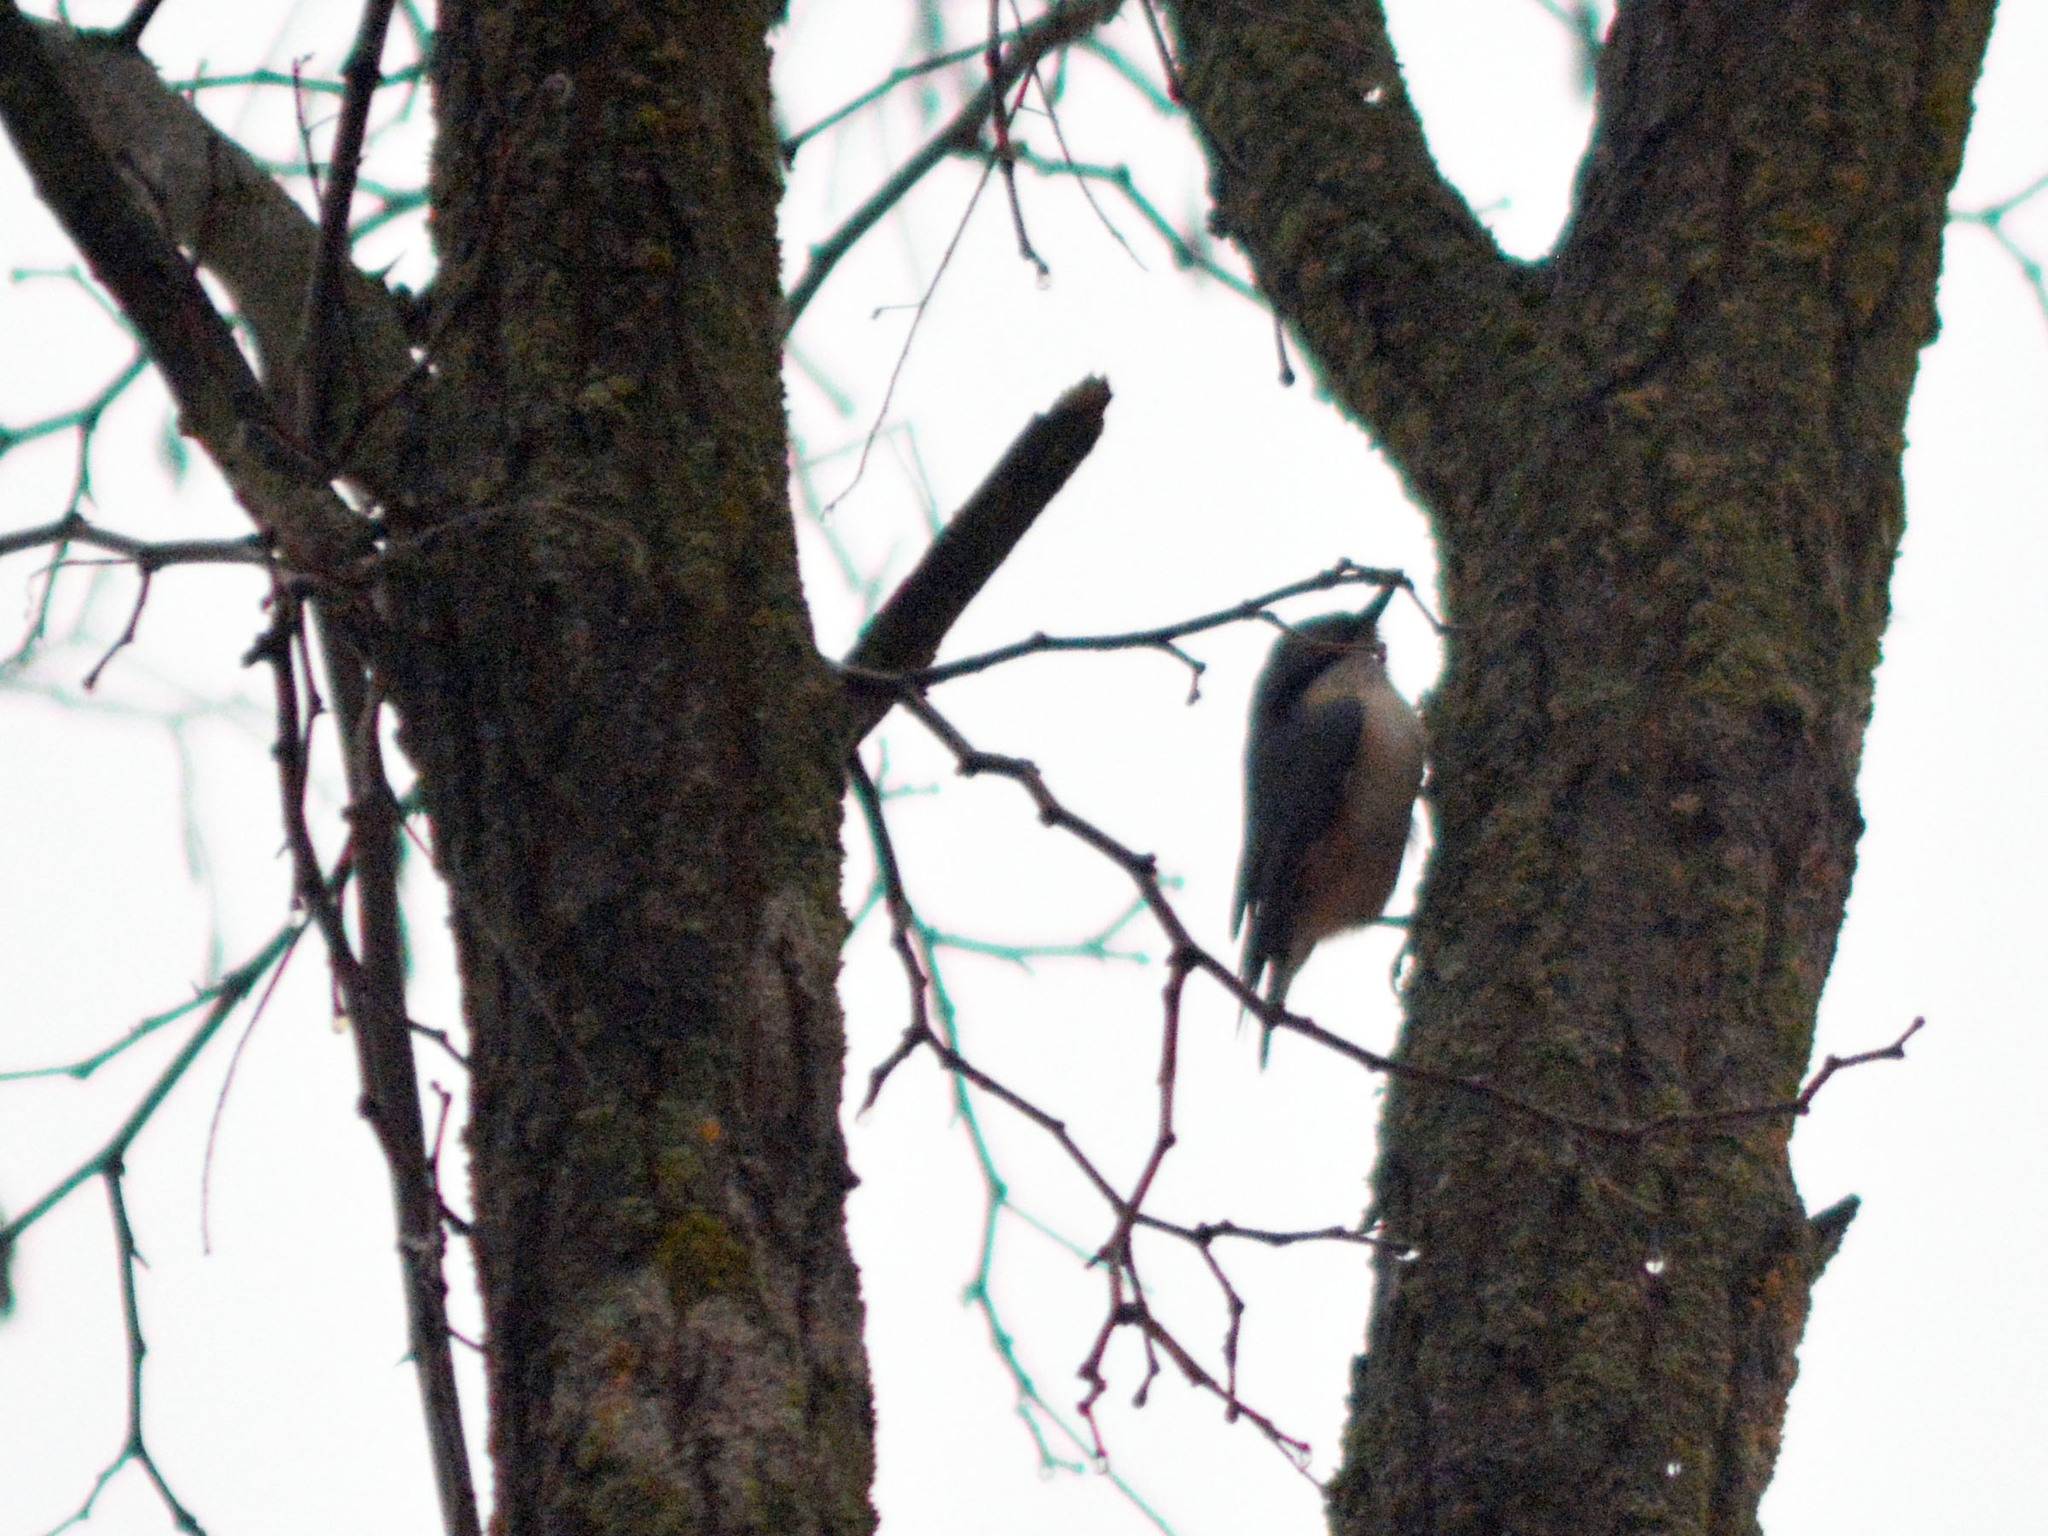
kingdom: Animalia
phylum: Chordata
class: Aves
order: Passeriformes
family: Sittidae
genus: Sitta
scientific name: Sitta europaea
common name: Eurasian nuthatch
